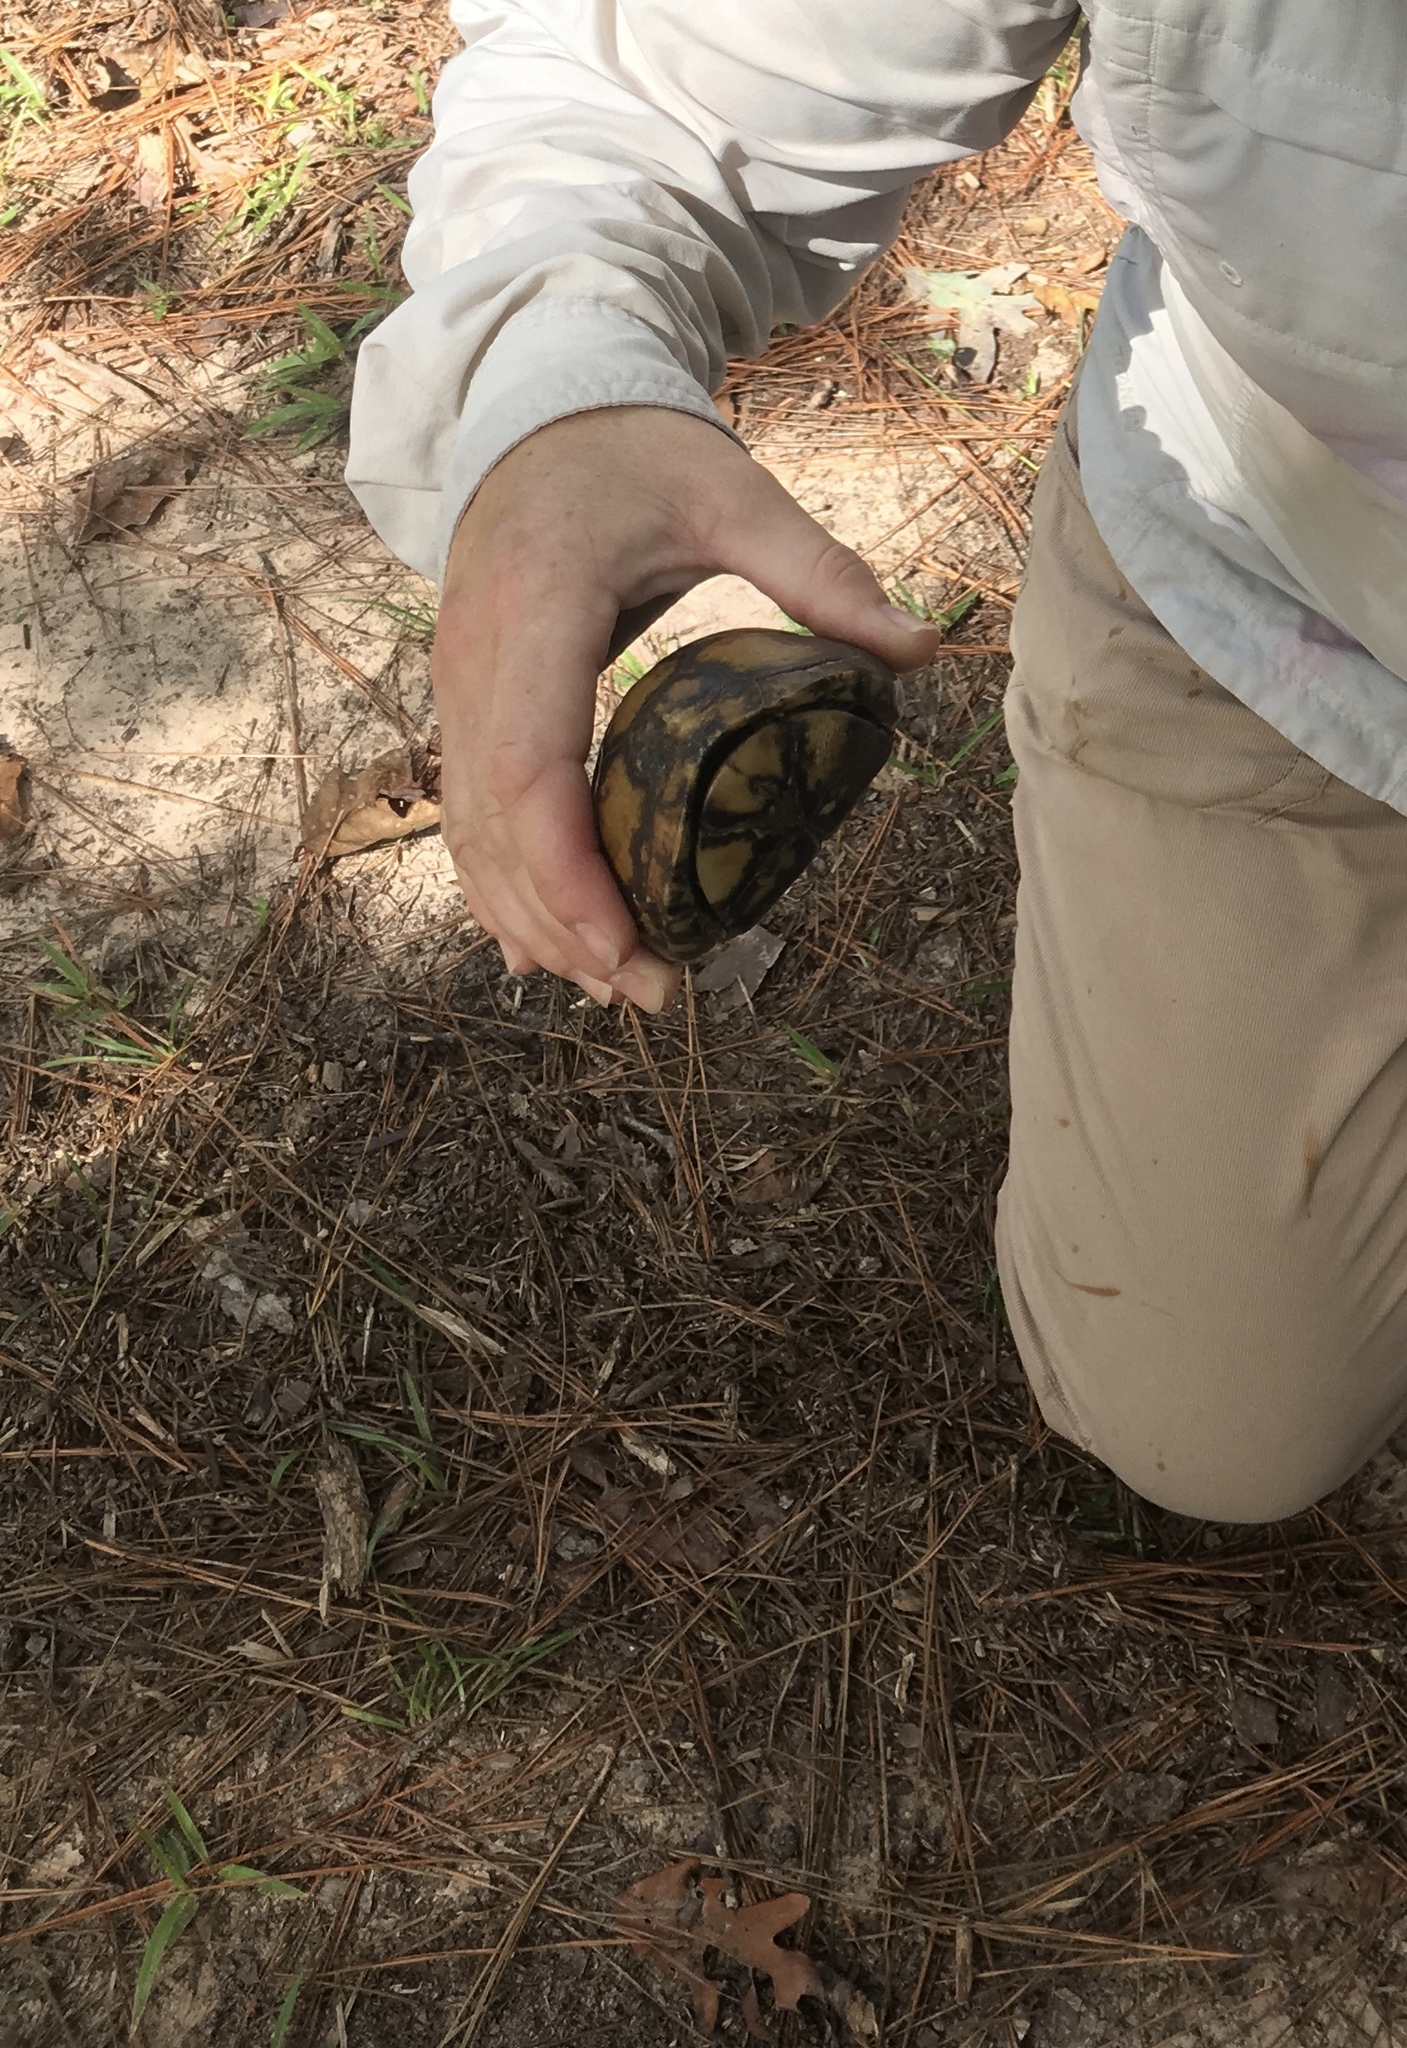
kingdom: Animalia
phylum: Chordata
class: Testudines
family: Emydidae
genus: Terrapene
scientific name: Terrapene carolina
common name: Common box turtle
